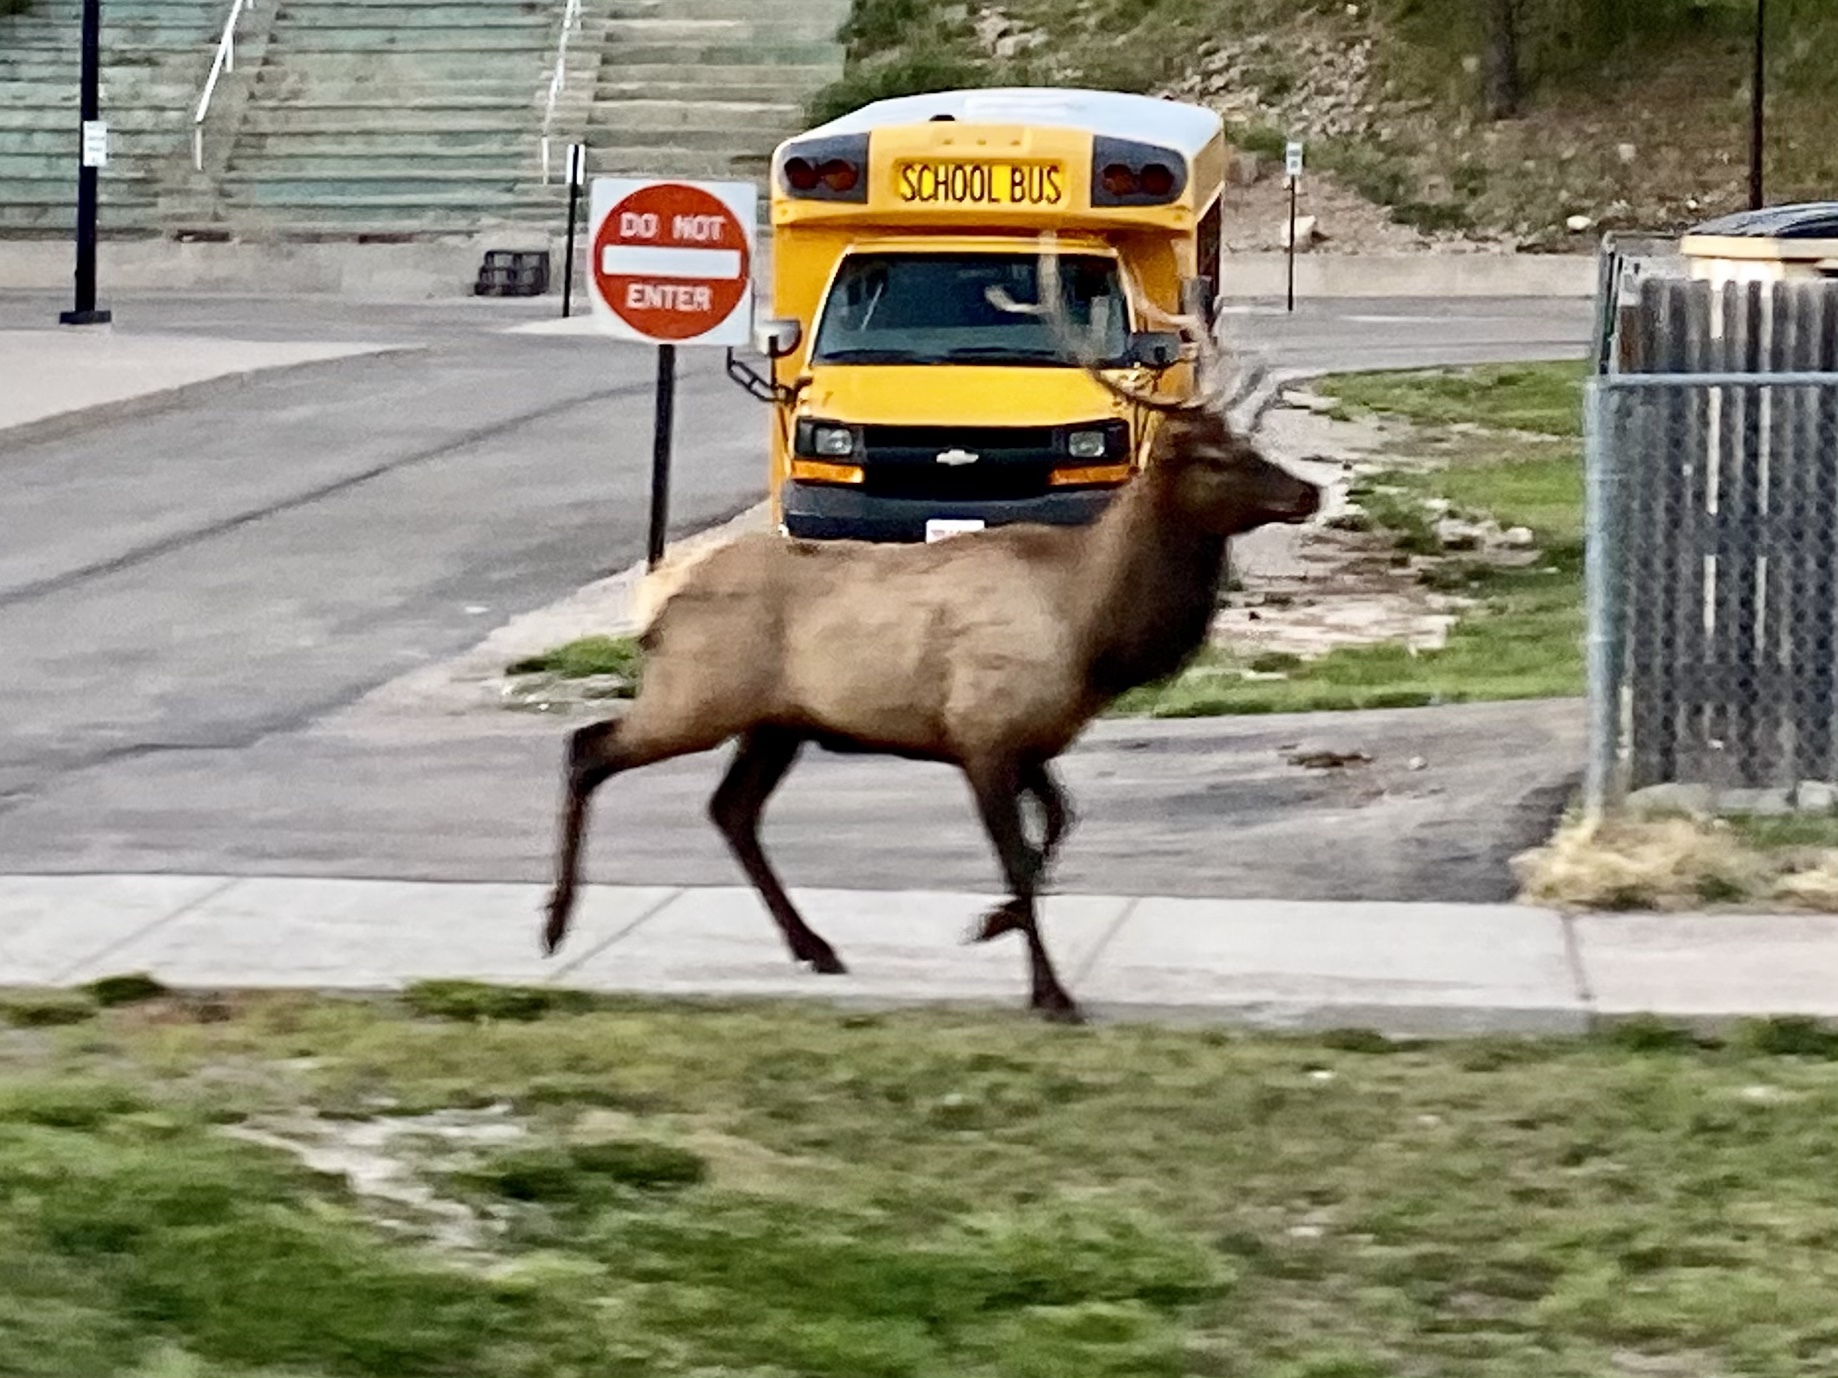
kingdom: Animalia
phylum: Chordata
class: Mammalia
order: Artiodactyla
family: Cervidae
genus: Cervus
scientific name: Cervus elaphus
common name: Red deer
